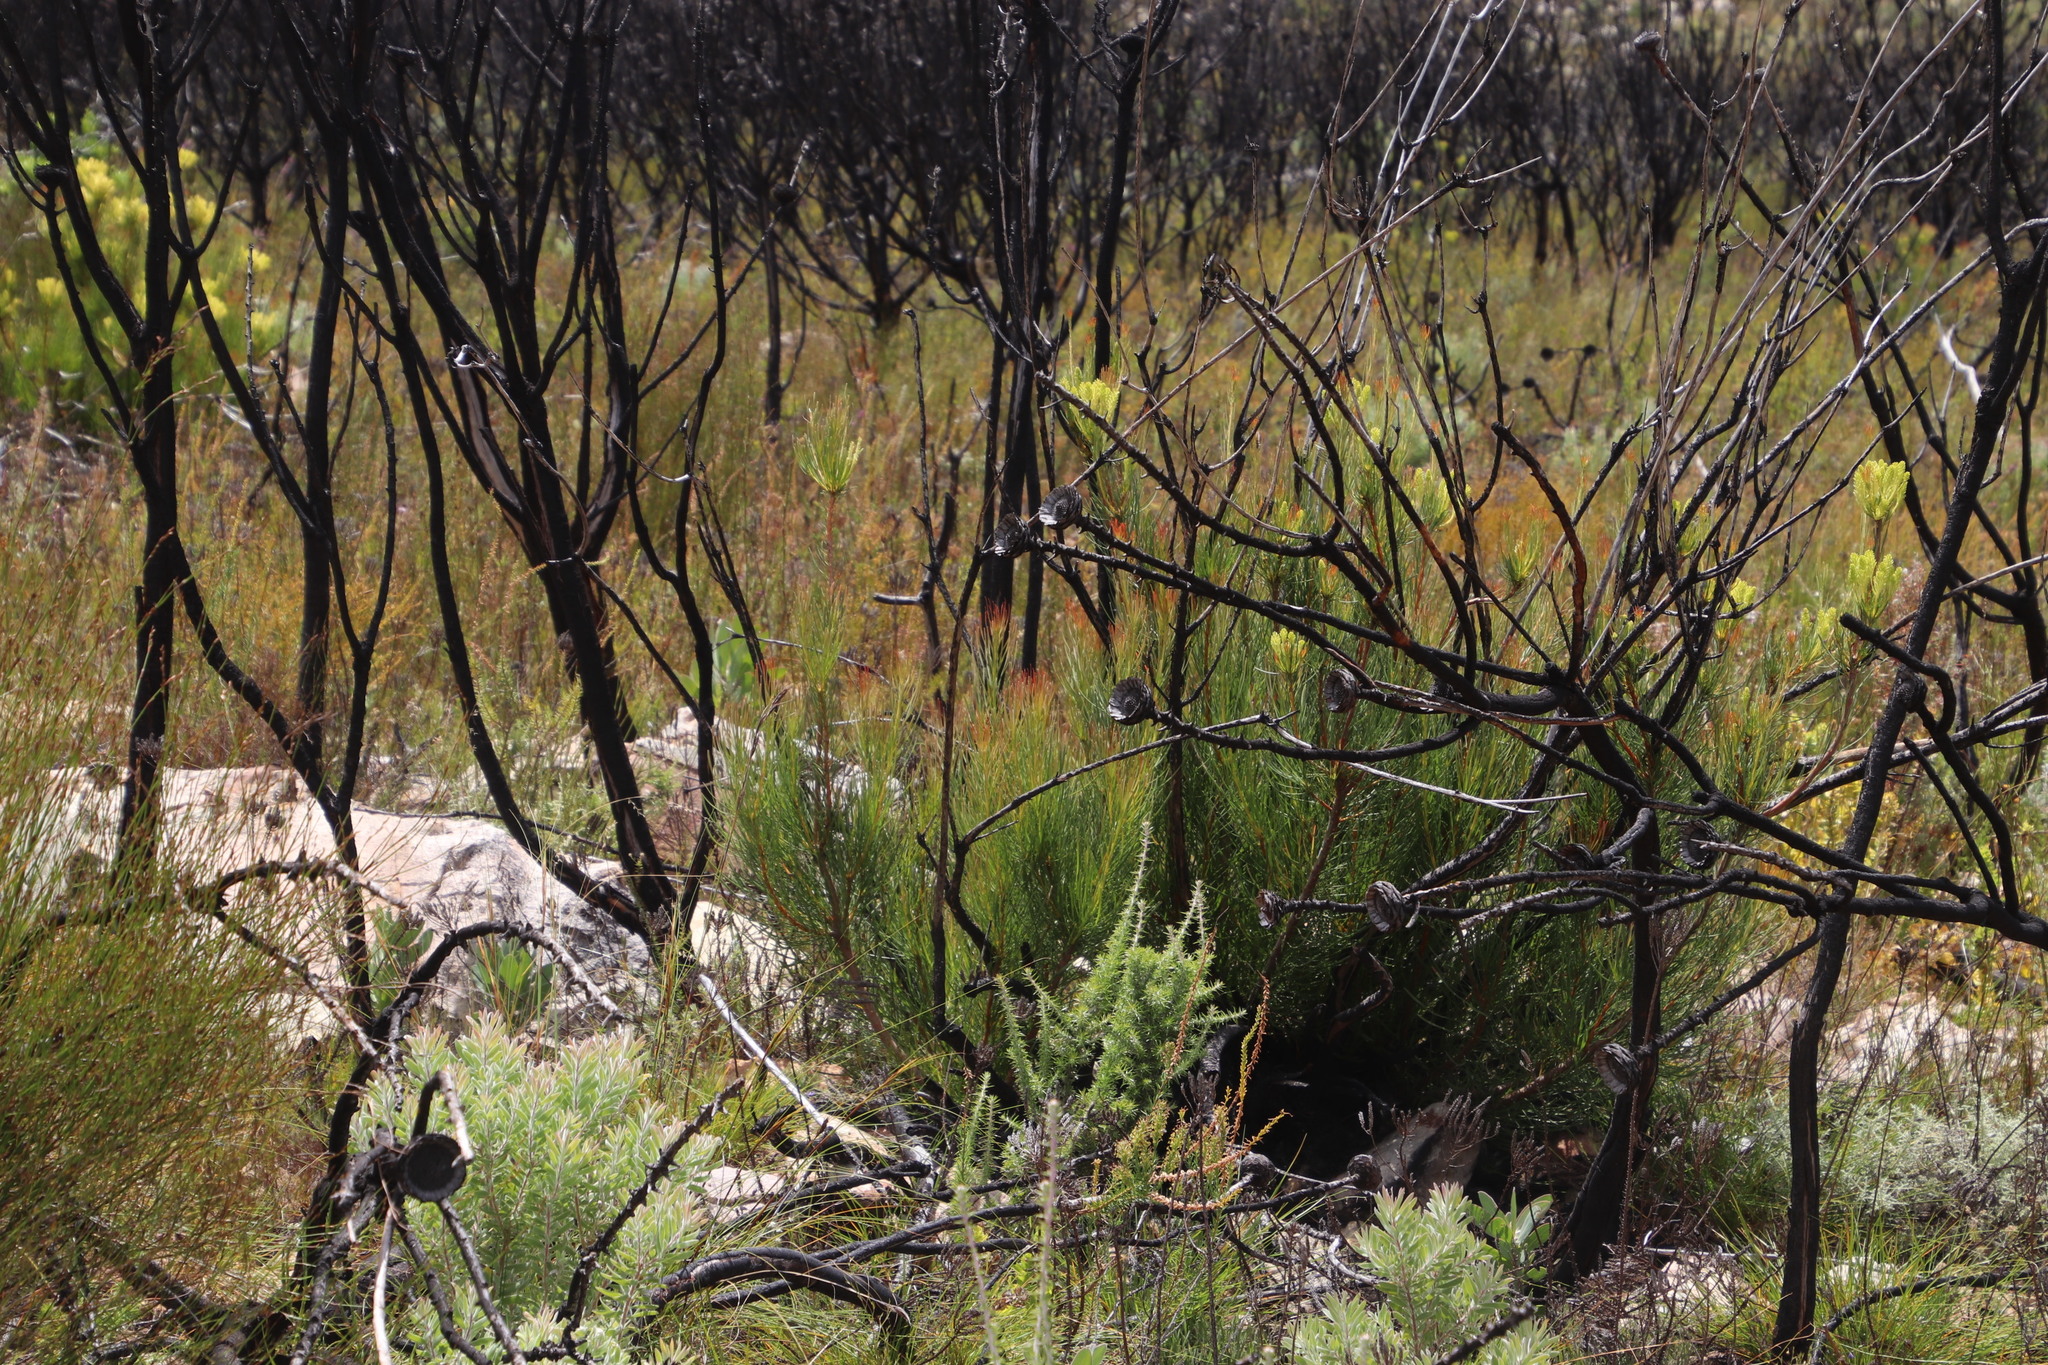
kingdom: Plantae
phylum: Tracheophyta
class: Magnoliopsida
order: Proteales
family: Proteaceae
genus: Aulax
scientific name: Aulax pallasia
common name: Needle-leaf featherbush
